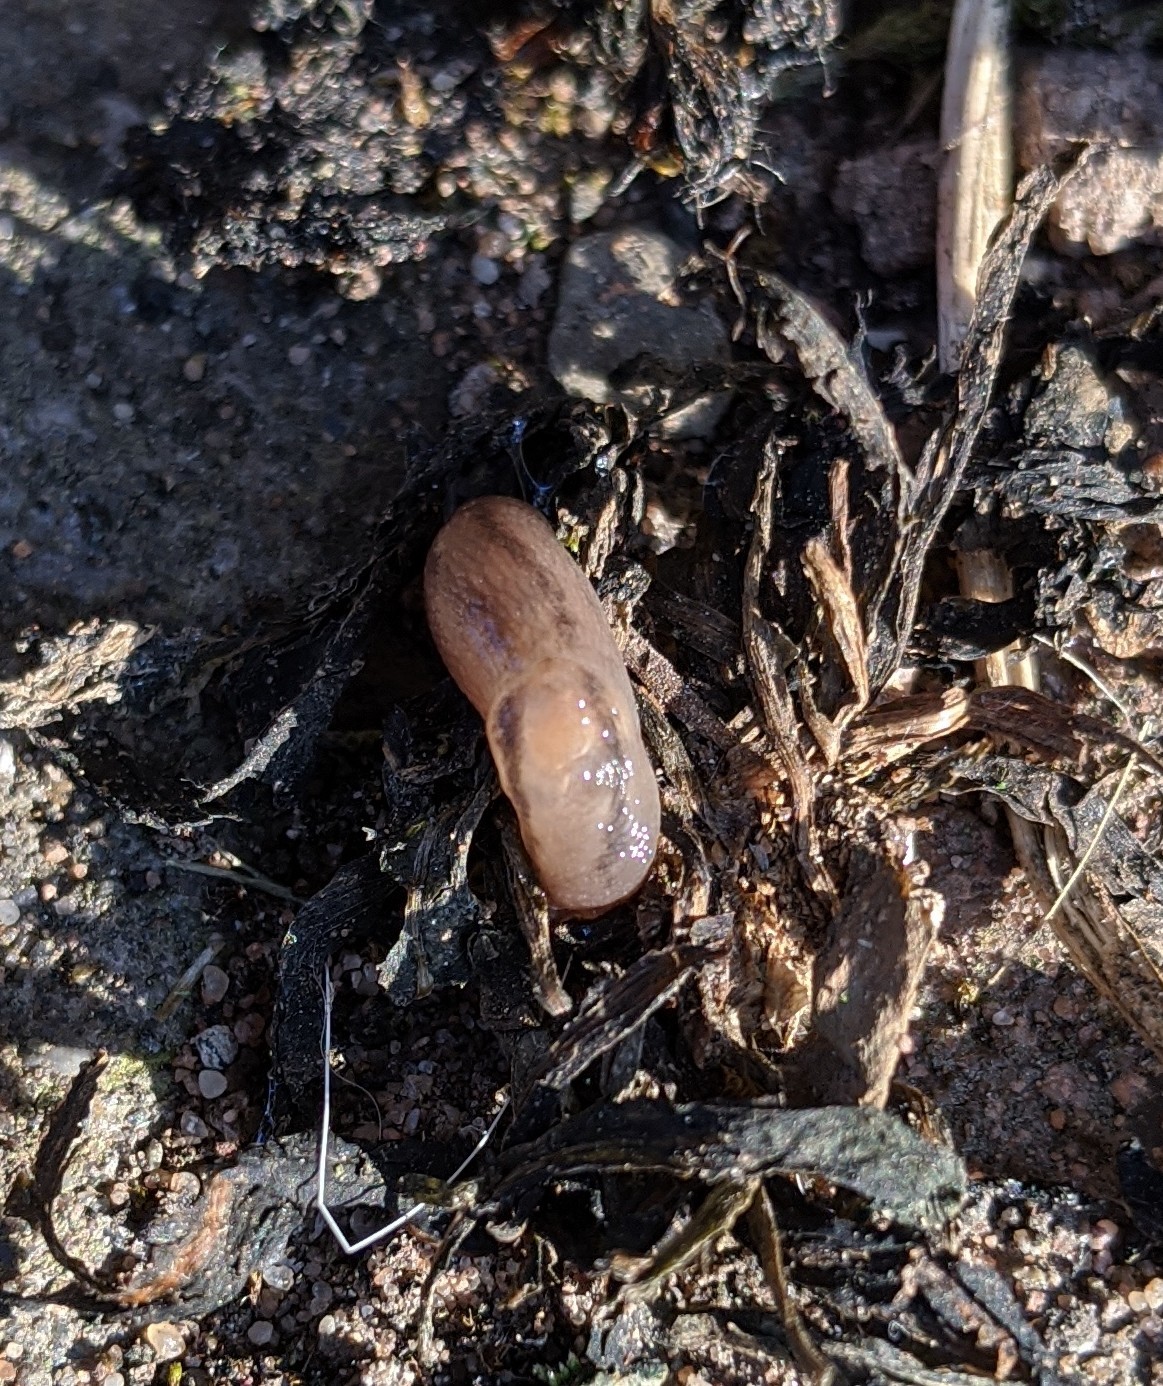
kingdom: Animalia
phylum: Mollusca
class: Gastropoda
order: Stylommatophora
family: Limacidae
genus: Ambigolimax
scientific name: Ambigolimax
